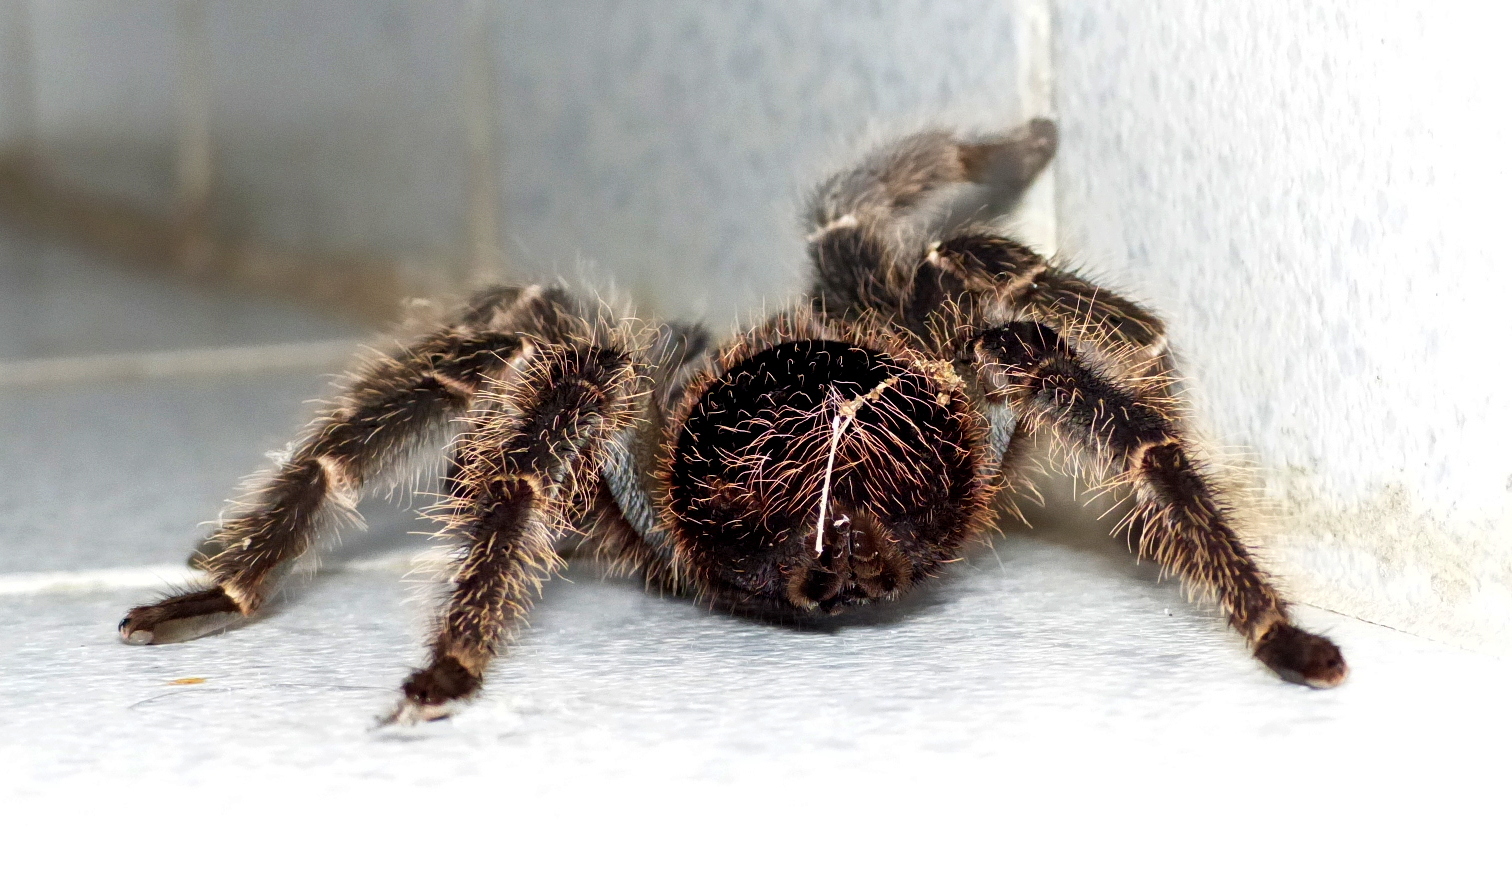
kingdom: Animalia
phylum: Arthropoda
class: Arachnida
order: Araneae
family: Theraphosidae
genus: Lasiodora
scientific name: Lasiodora parahybana
